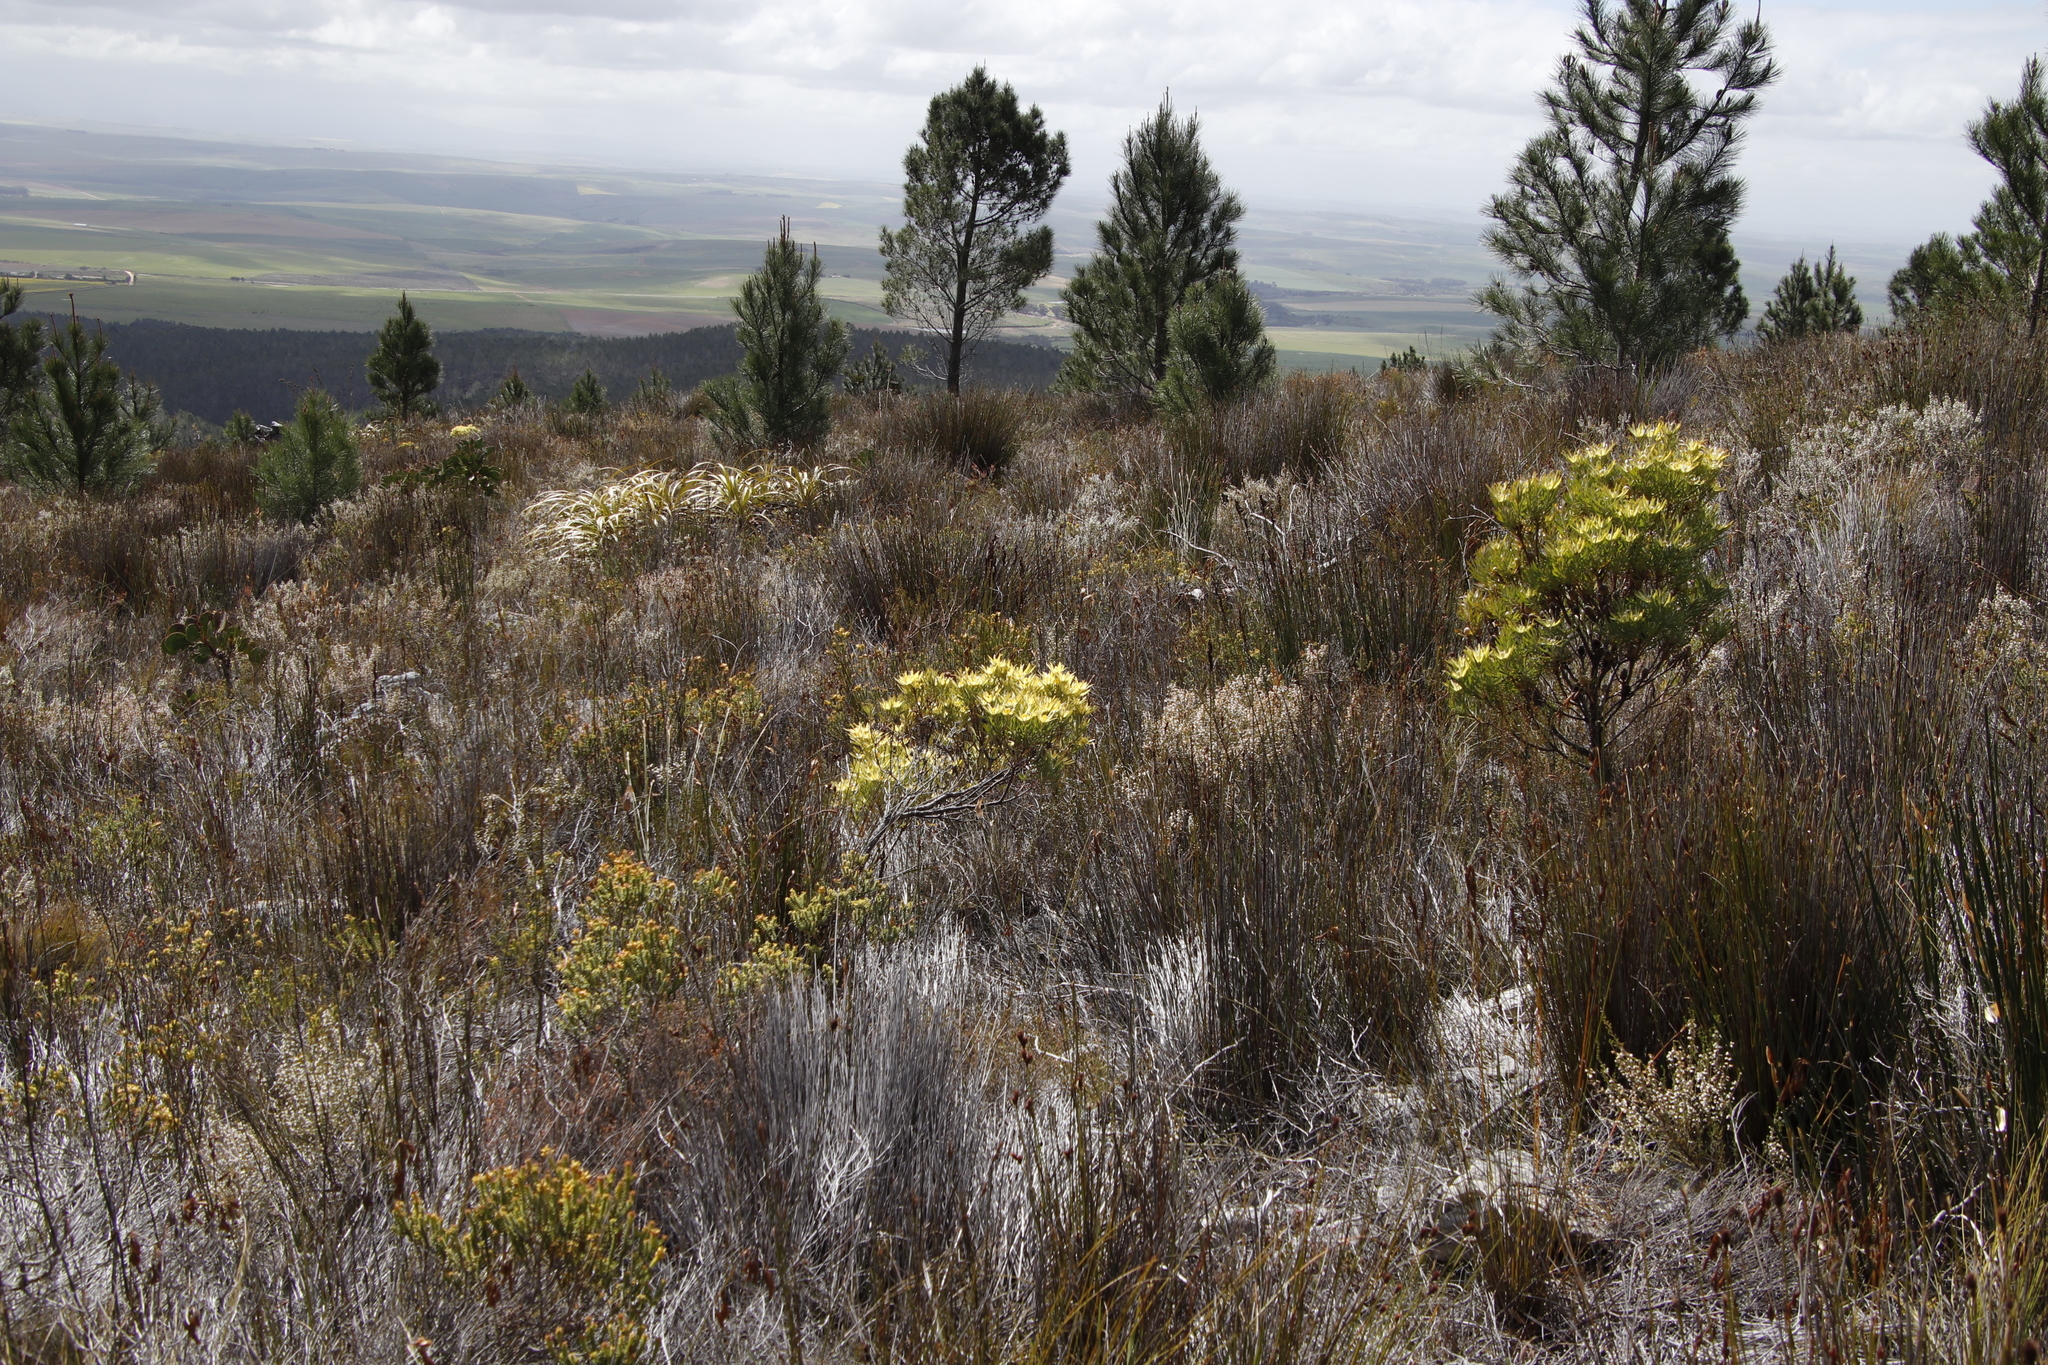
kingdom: Plantae
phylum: Tracheophyta
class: Magnoliopsida
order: Proteales
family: Proteaceae
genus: Leucadendron
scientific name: Leucadendron xanthoconus
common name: Sickle-leaf conebush
